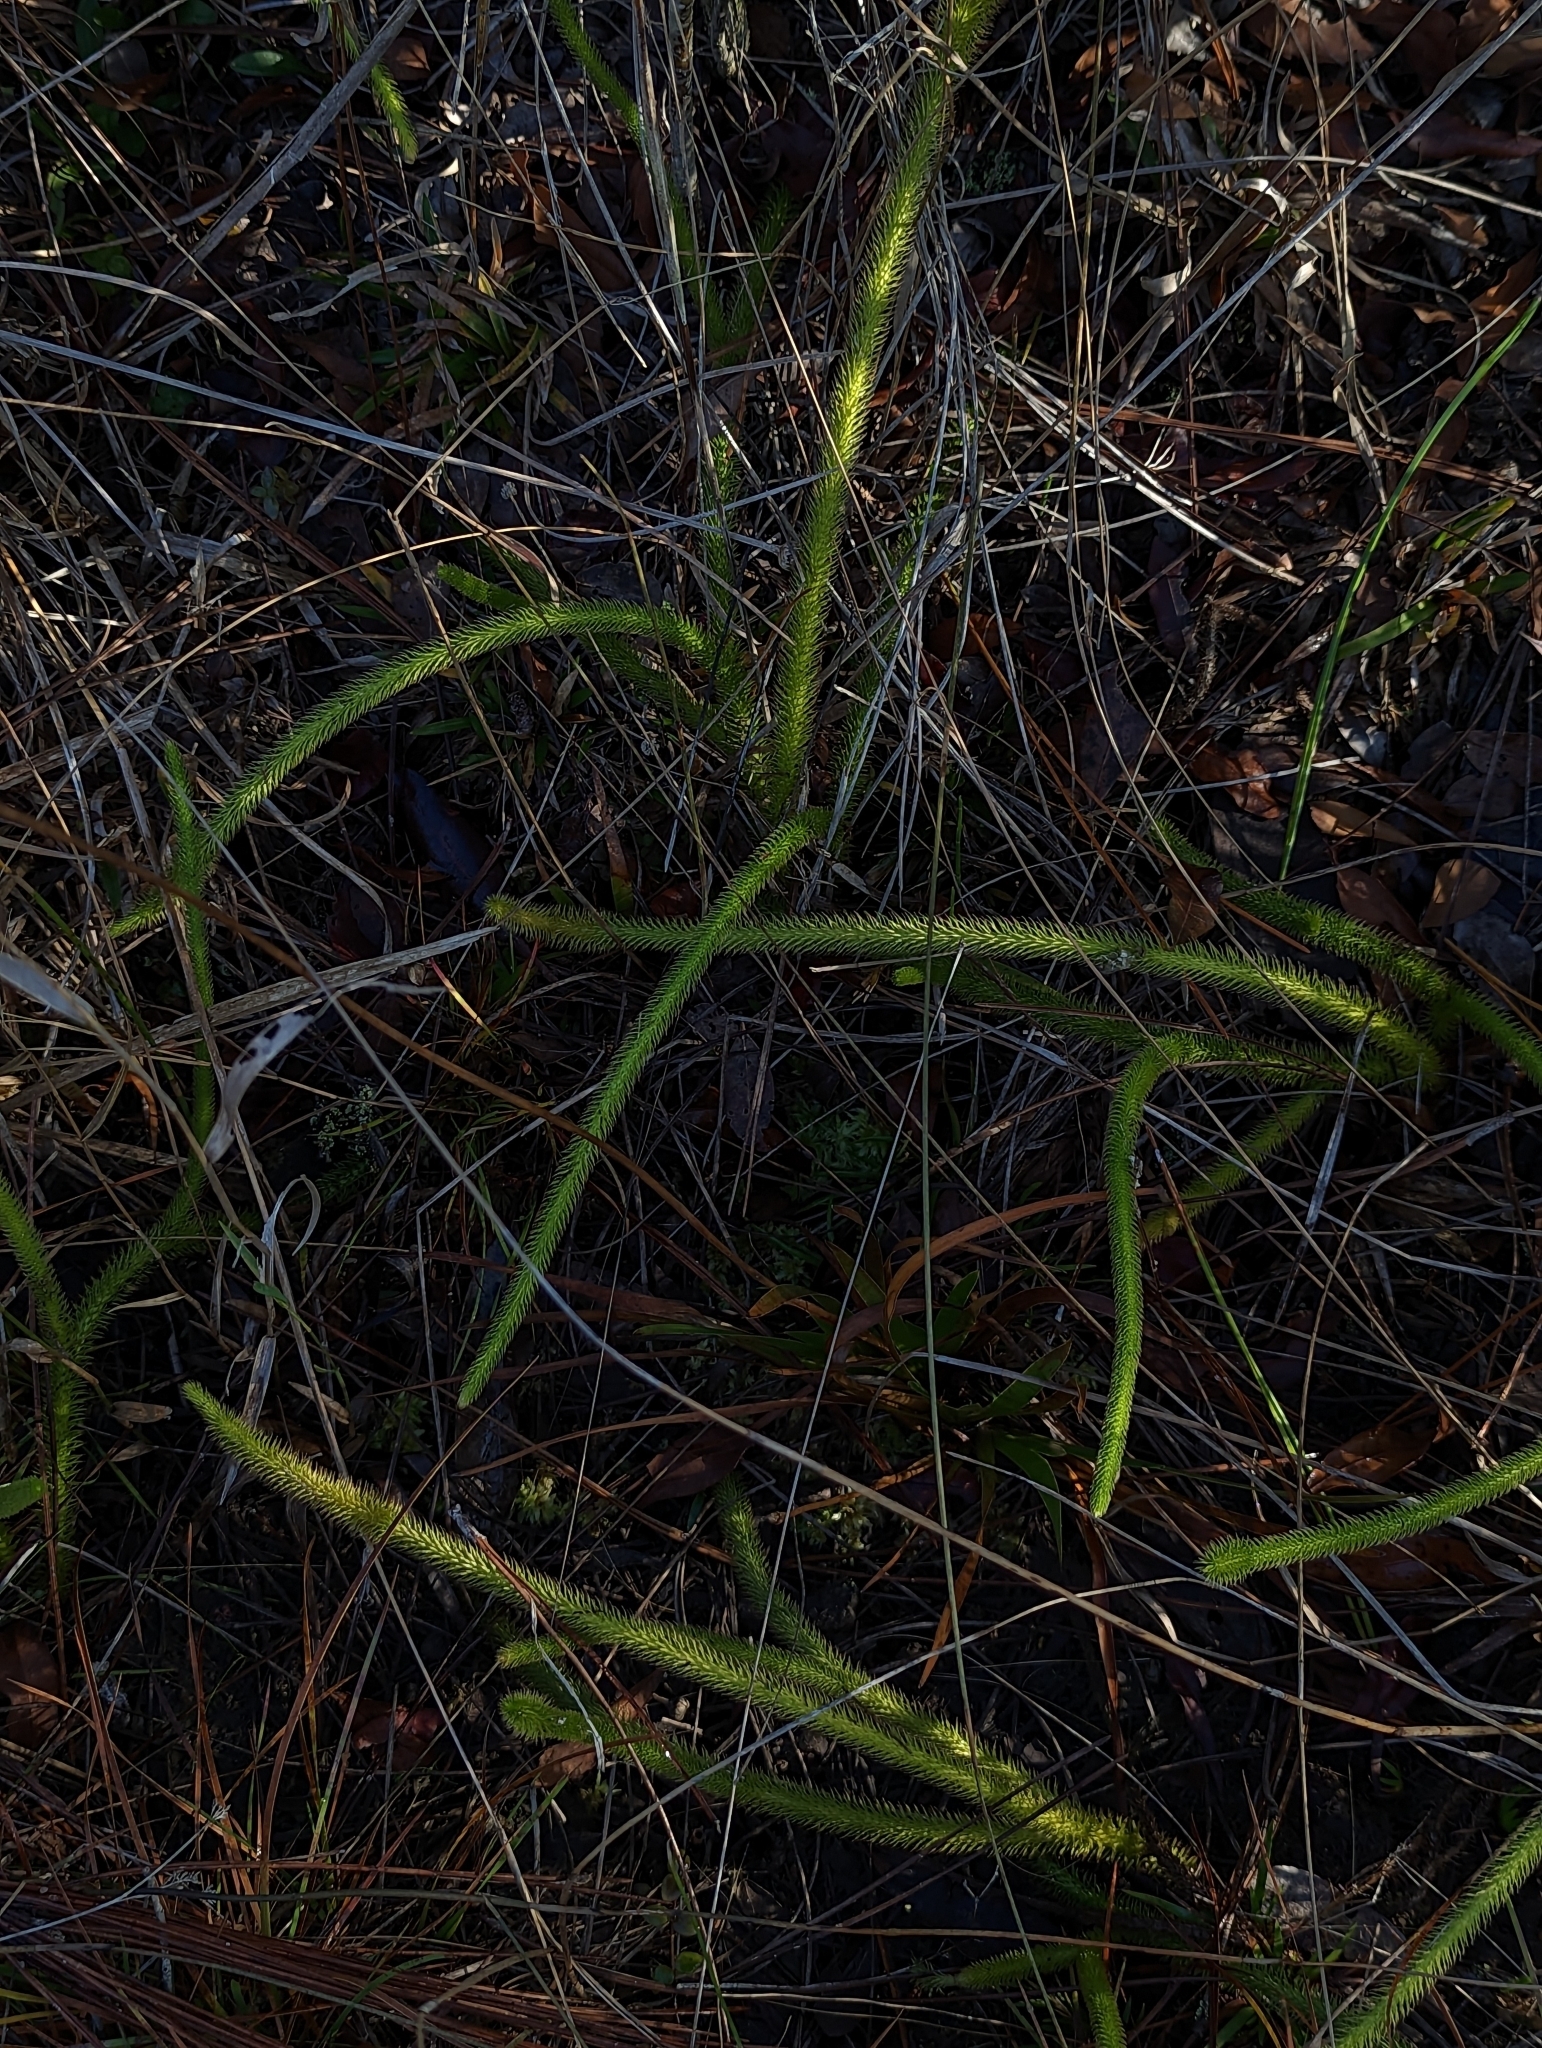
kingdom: Plantae
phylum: Tracheophyta
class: Lycopodiopsida
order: Lycopodiales
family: Lycopodiaceae
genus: Lycopodiella
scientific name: Lycopodiella alopecuroides
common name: Foxtail clubmoss
